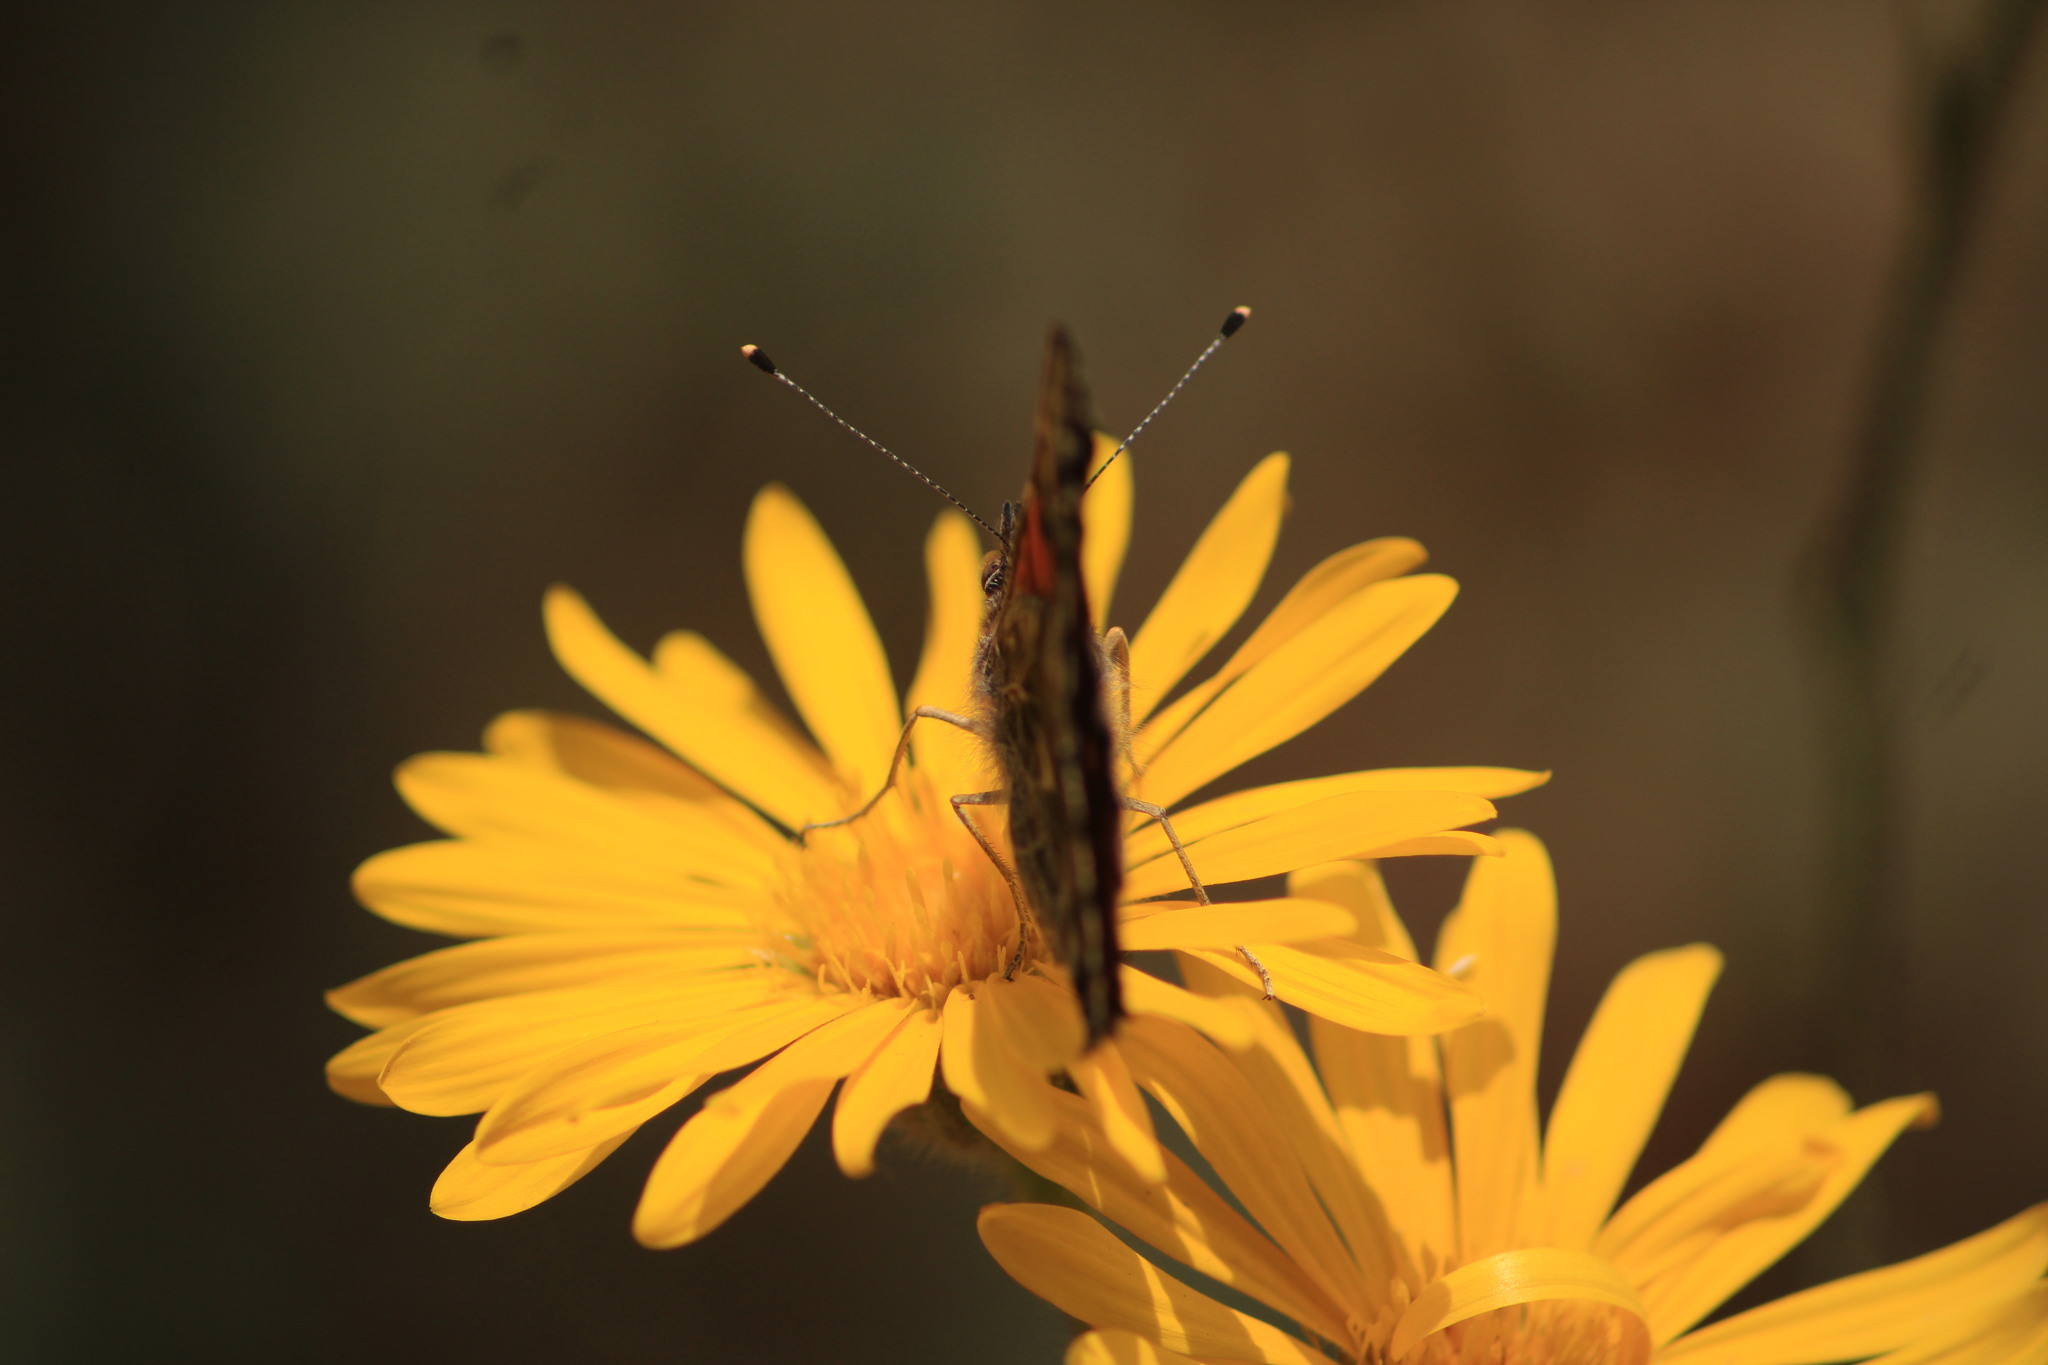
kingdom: Animalia
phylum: Arthropoda
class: Insecta
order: Lepidoptera
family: Nymphalidae
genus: Vanessa
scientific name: Vanessa annabella
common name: West coast lady
